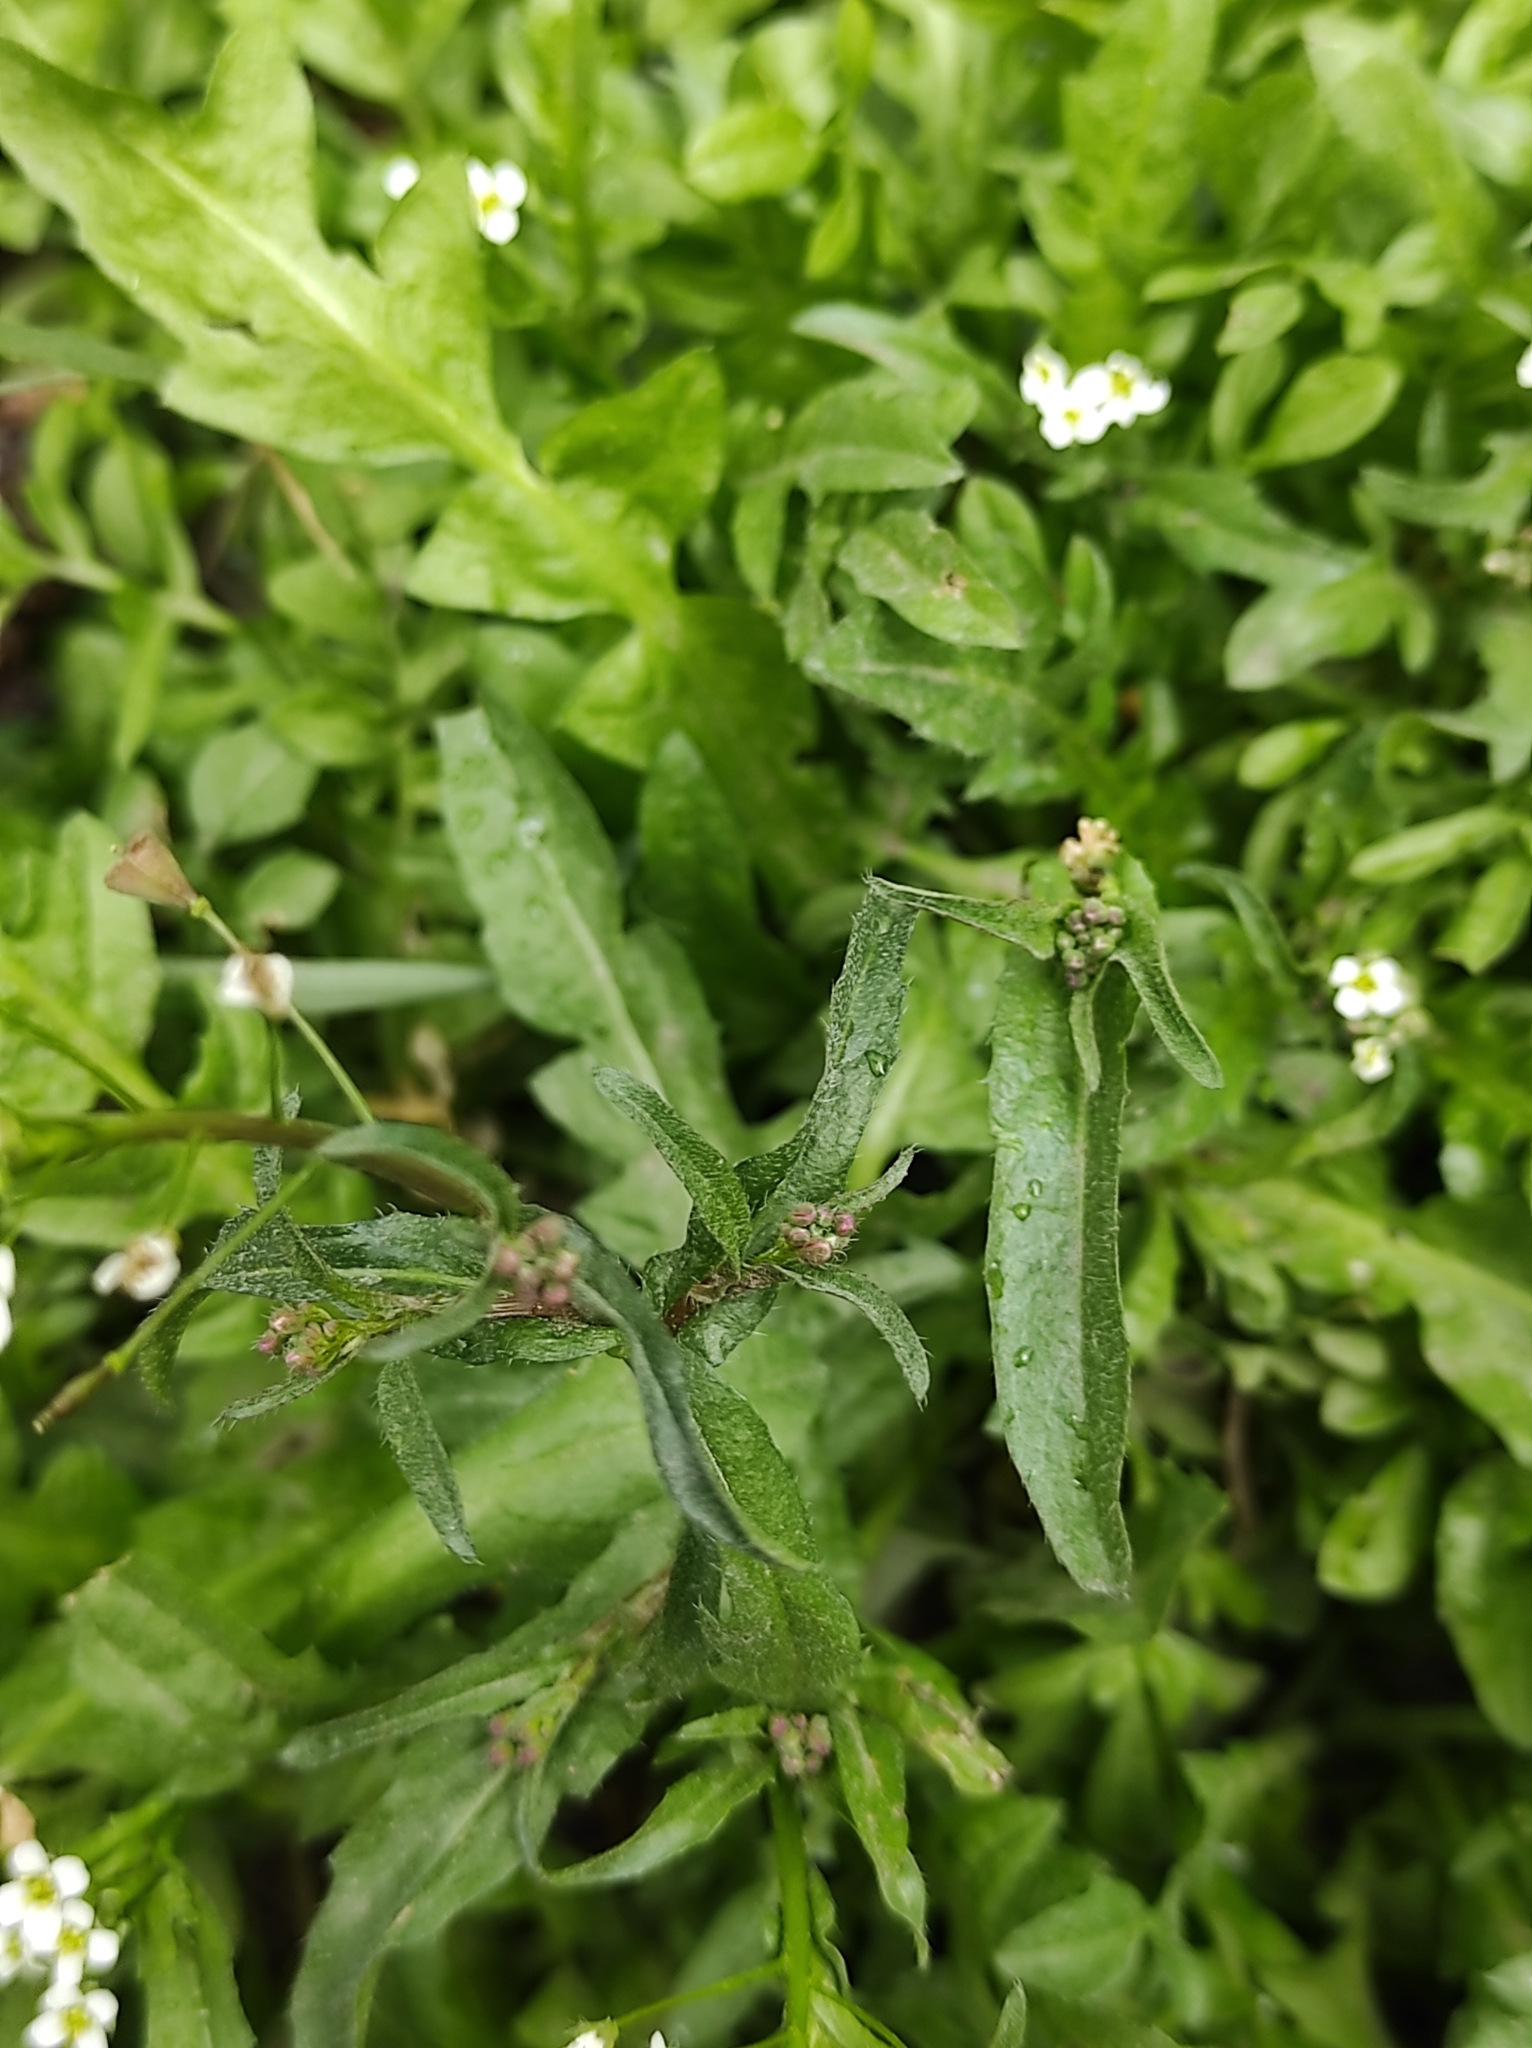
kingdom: Plantae
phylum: Tracheophyta
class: Magnoliopsida
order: Brassicales
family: Brassicaceae
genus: Capsella
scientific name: Capsella bursa-pastoris
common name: Shepherd's purse
